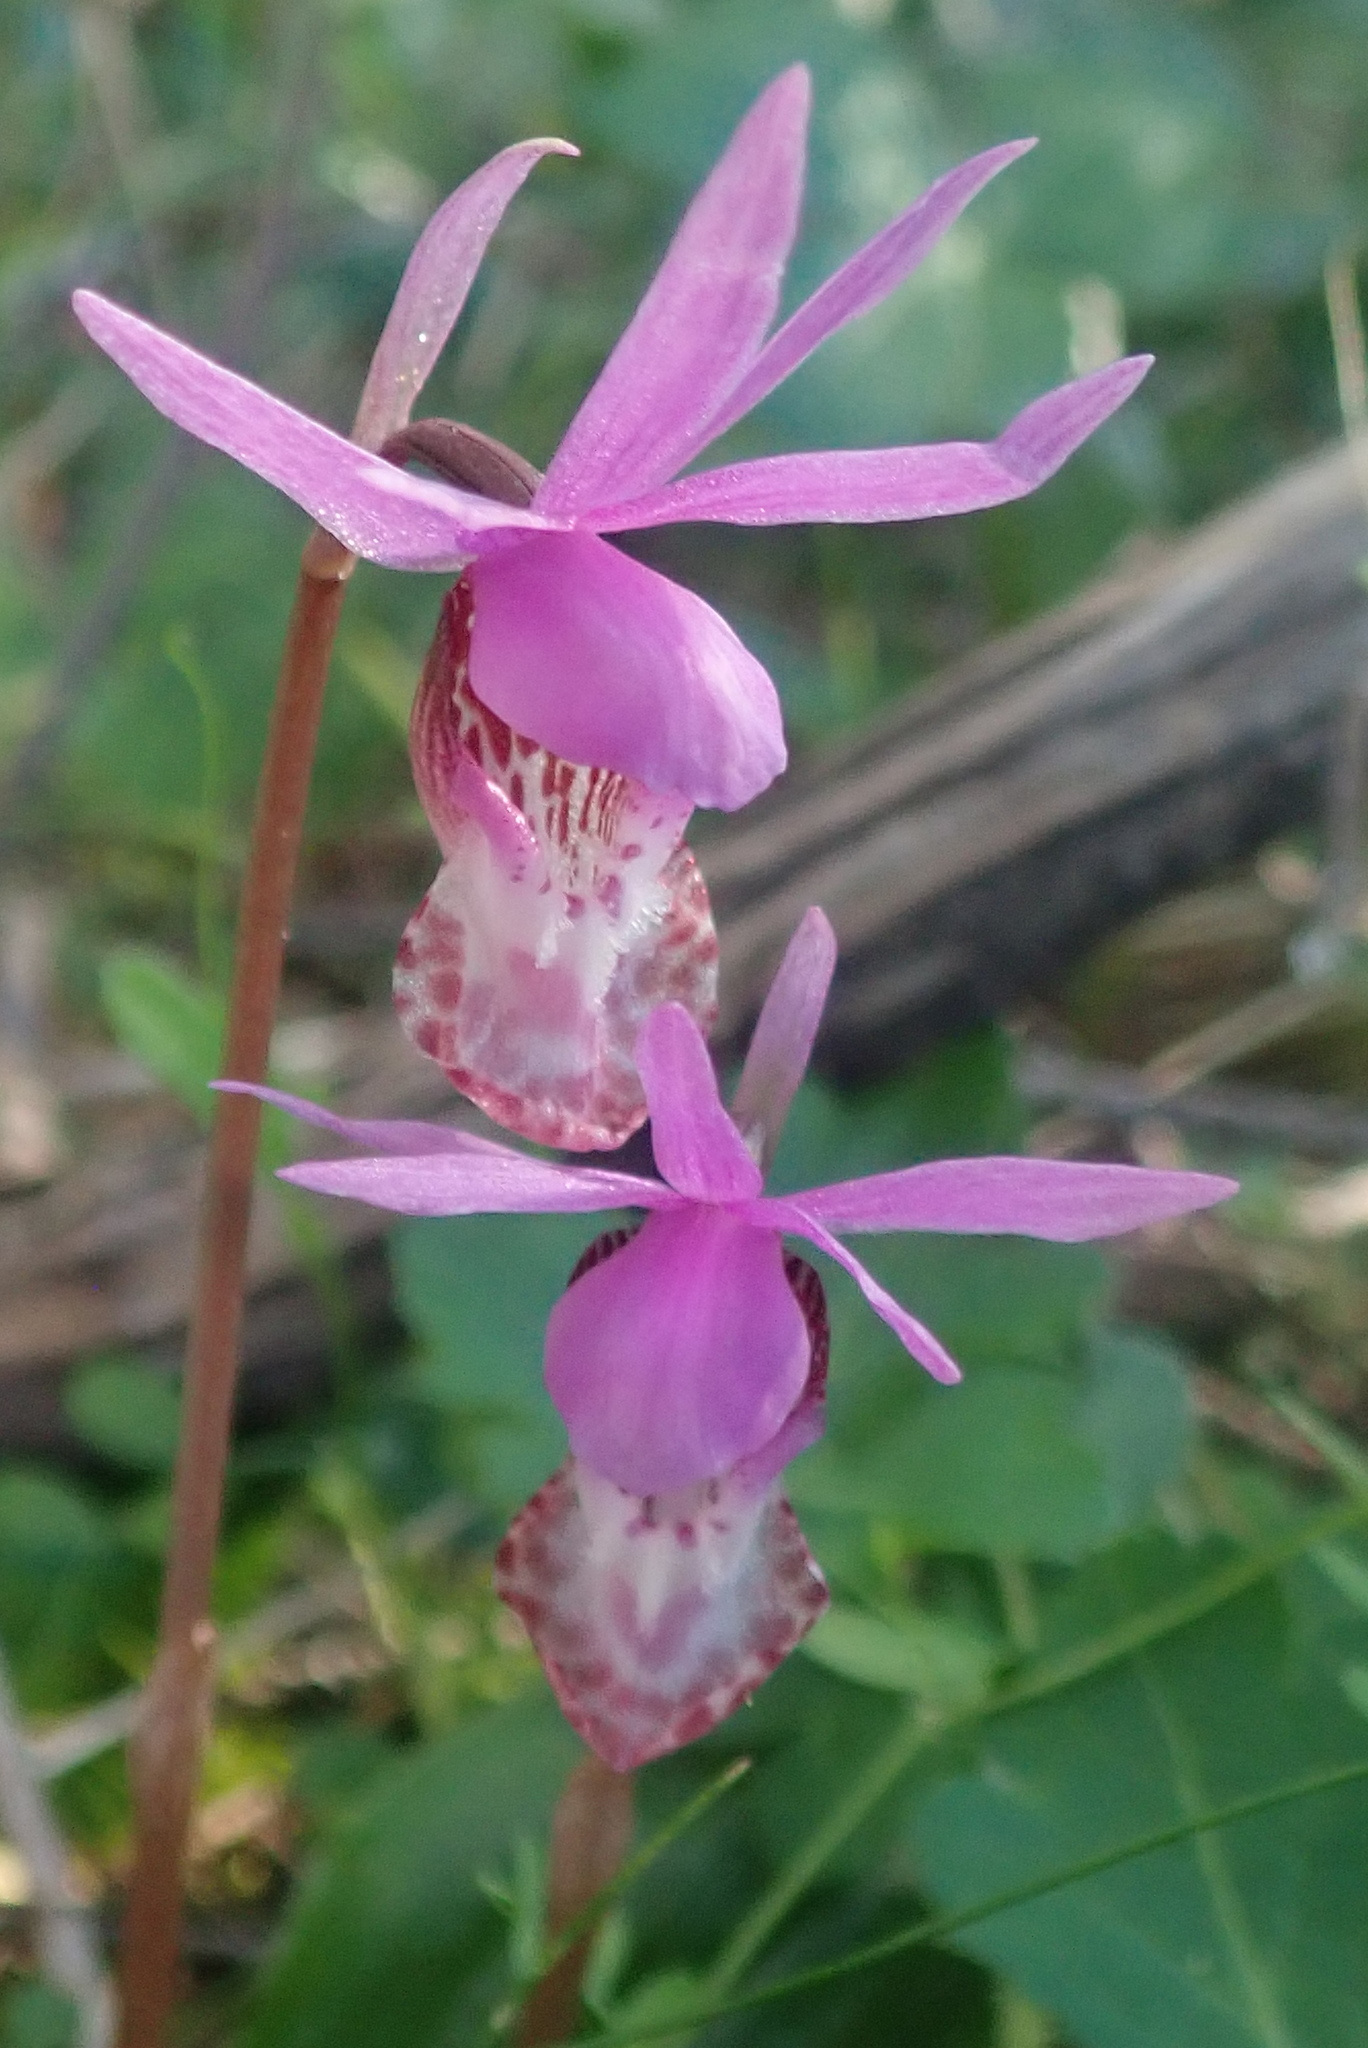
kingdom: Plantae
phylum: Tracheophyta
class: Liliopsida
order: Asparagales
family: Orchidaceae
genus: Calypso
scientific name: Calypso bulbosa
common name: Calypso
